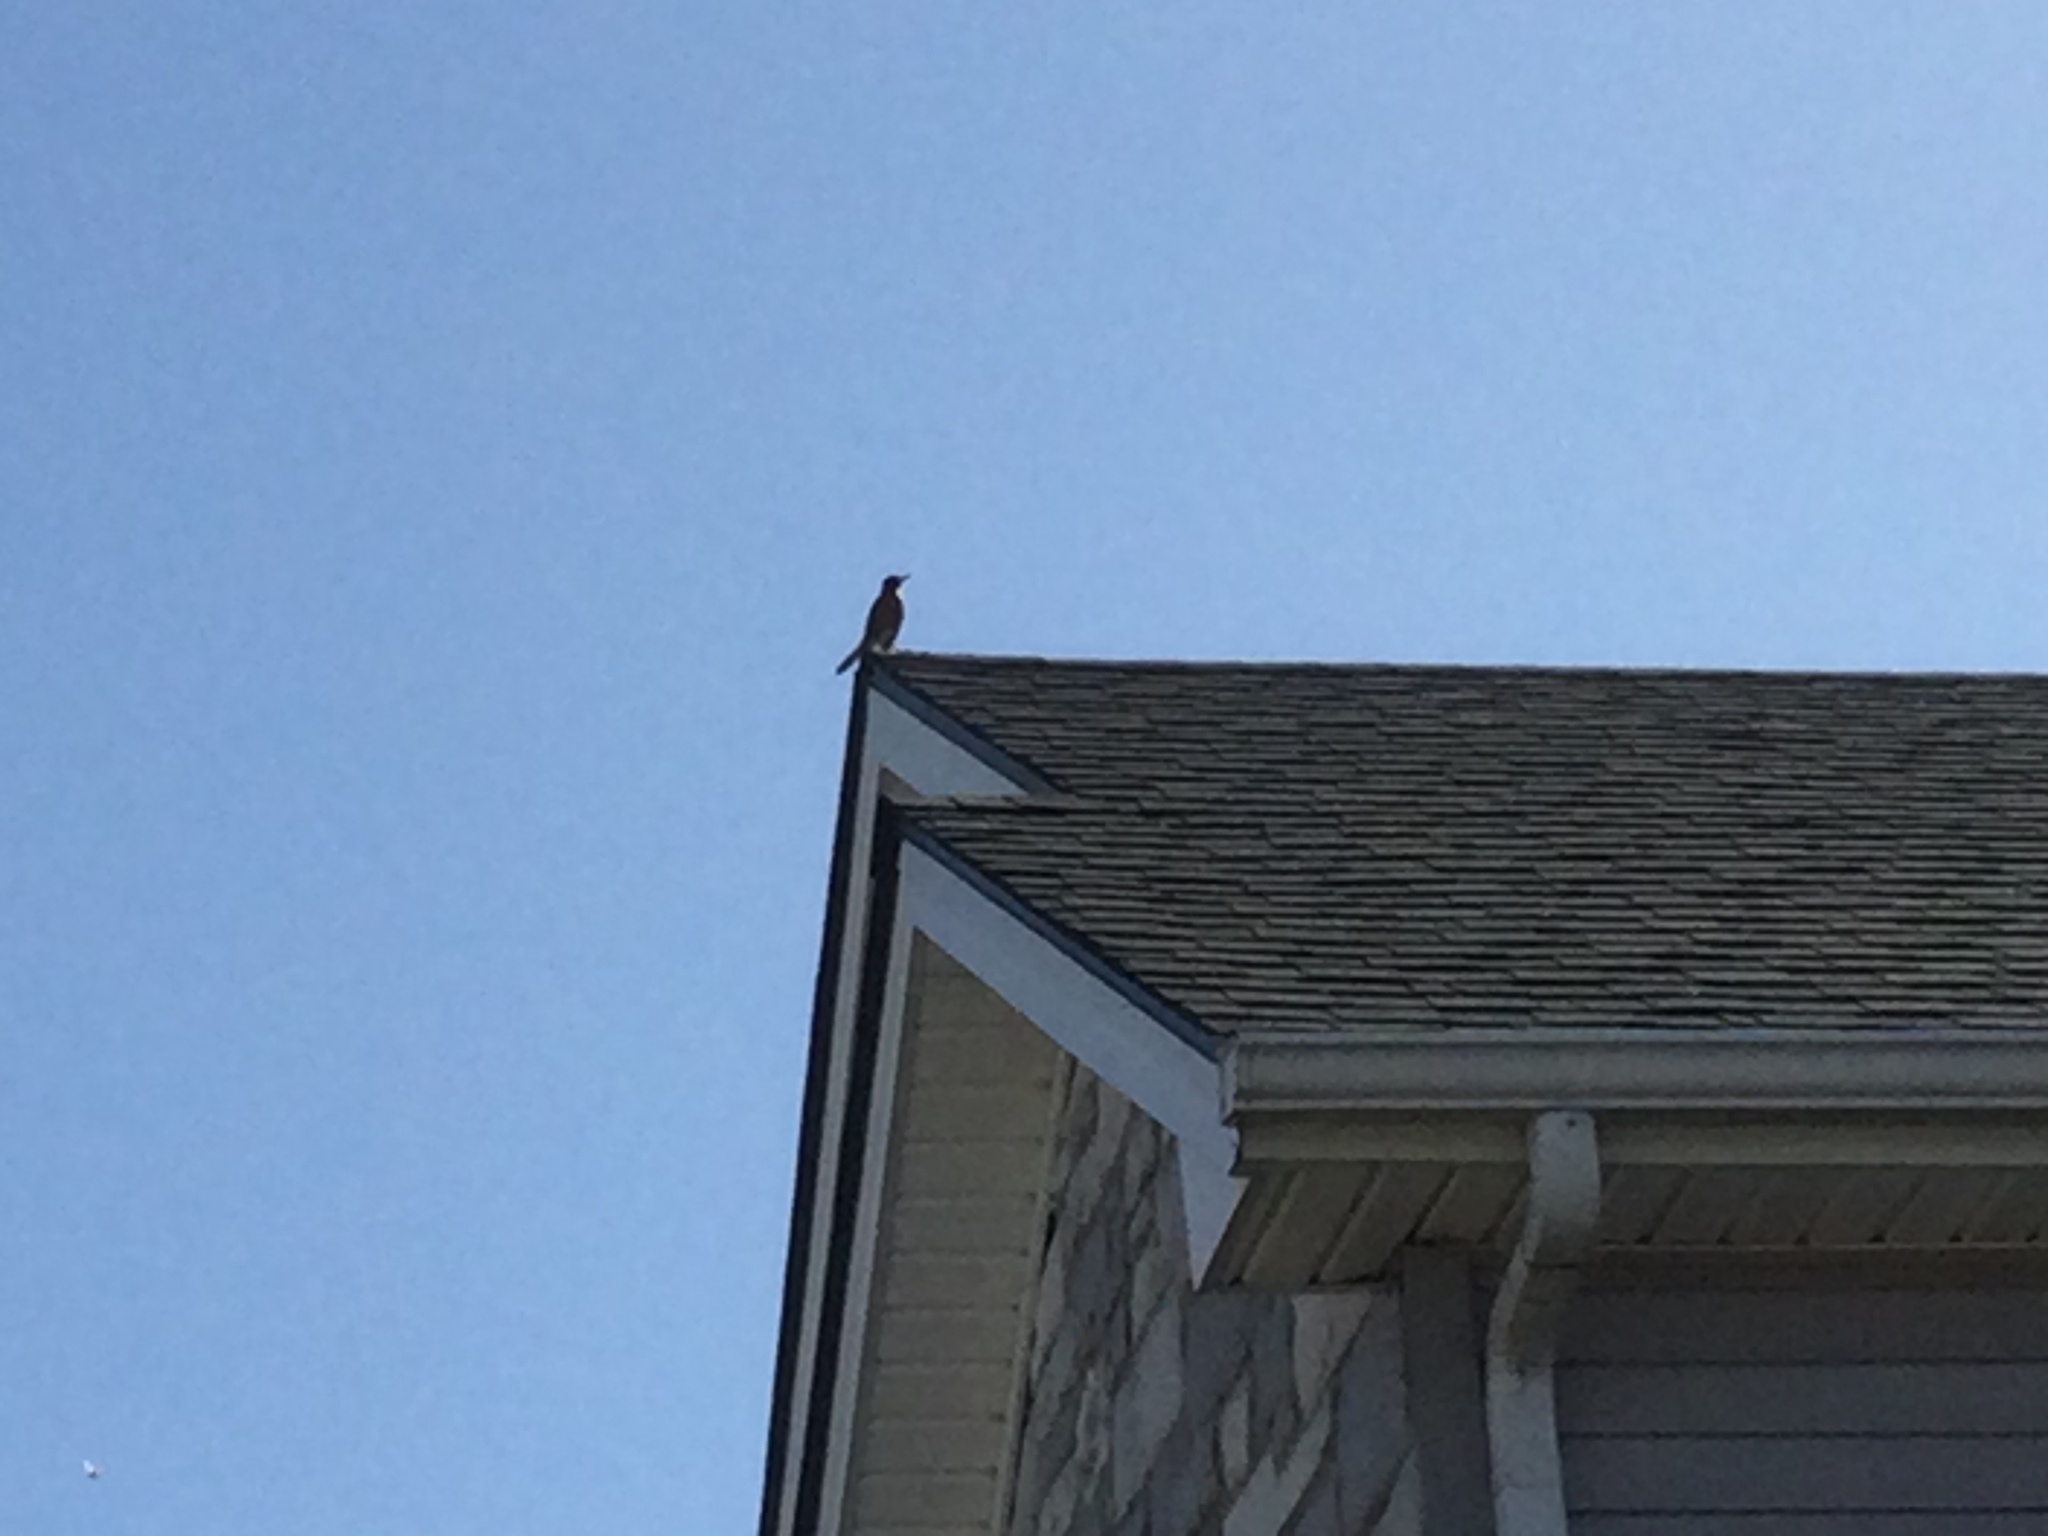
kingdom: Animalia
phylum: Chordata
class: Aves
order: Passeriformes
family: Turdidae
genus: Turdus
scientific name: Turdus migratorius
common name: American robin
